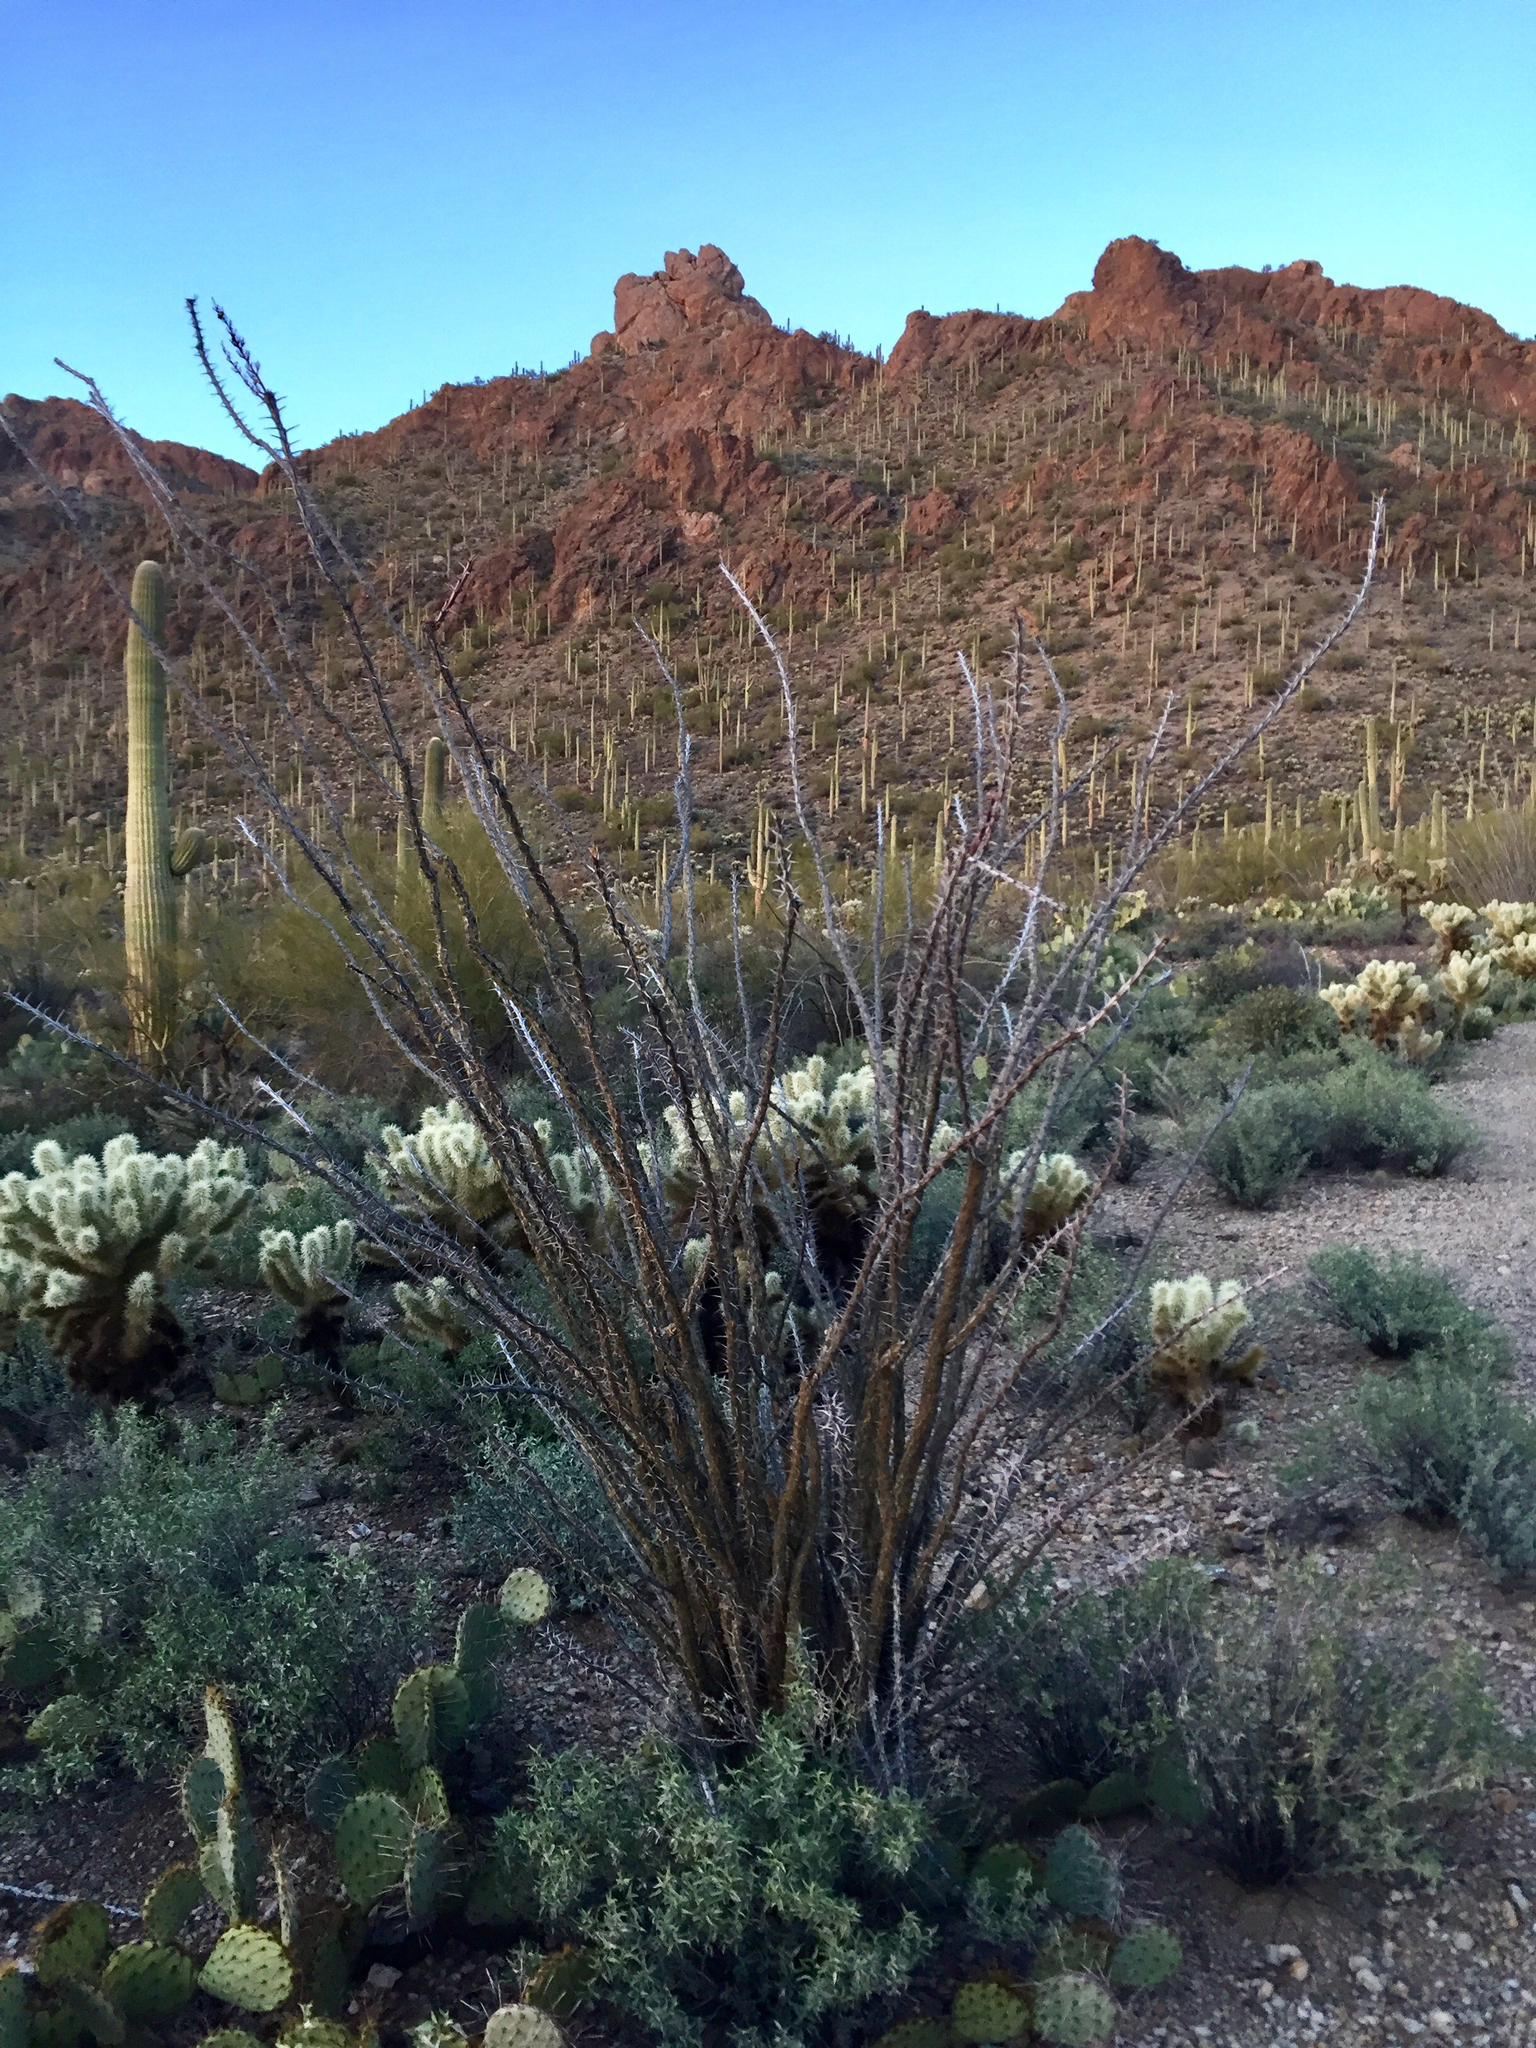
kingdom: Plantae
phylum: Tracheophyta
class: Magnoliopsida
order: Ericales
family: Fouquieriaceae
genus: Fouquieria
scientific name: Fouquieria splendens
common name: Vine-cactus
